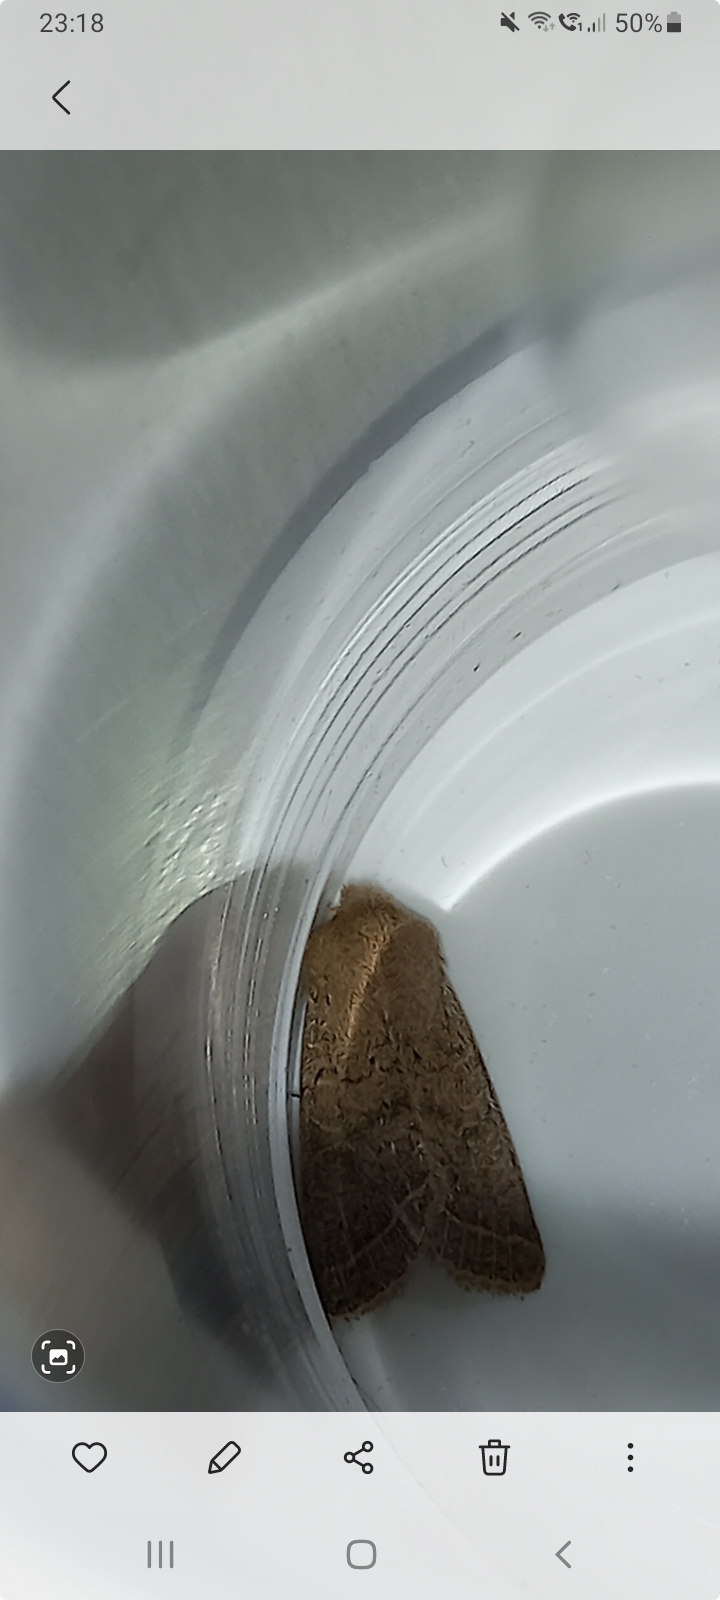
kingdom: Animalia
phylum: Arthropoda
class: Insecta
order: Lepidoptera
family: Noctuidae
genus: Orthosia
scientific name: Orthosia cerasi
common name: Common quaker
